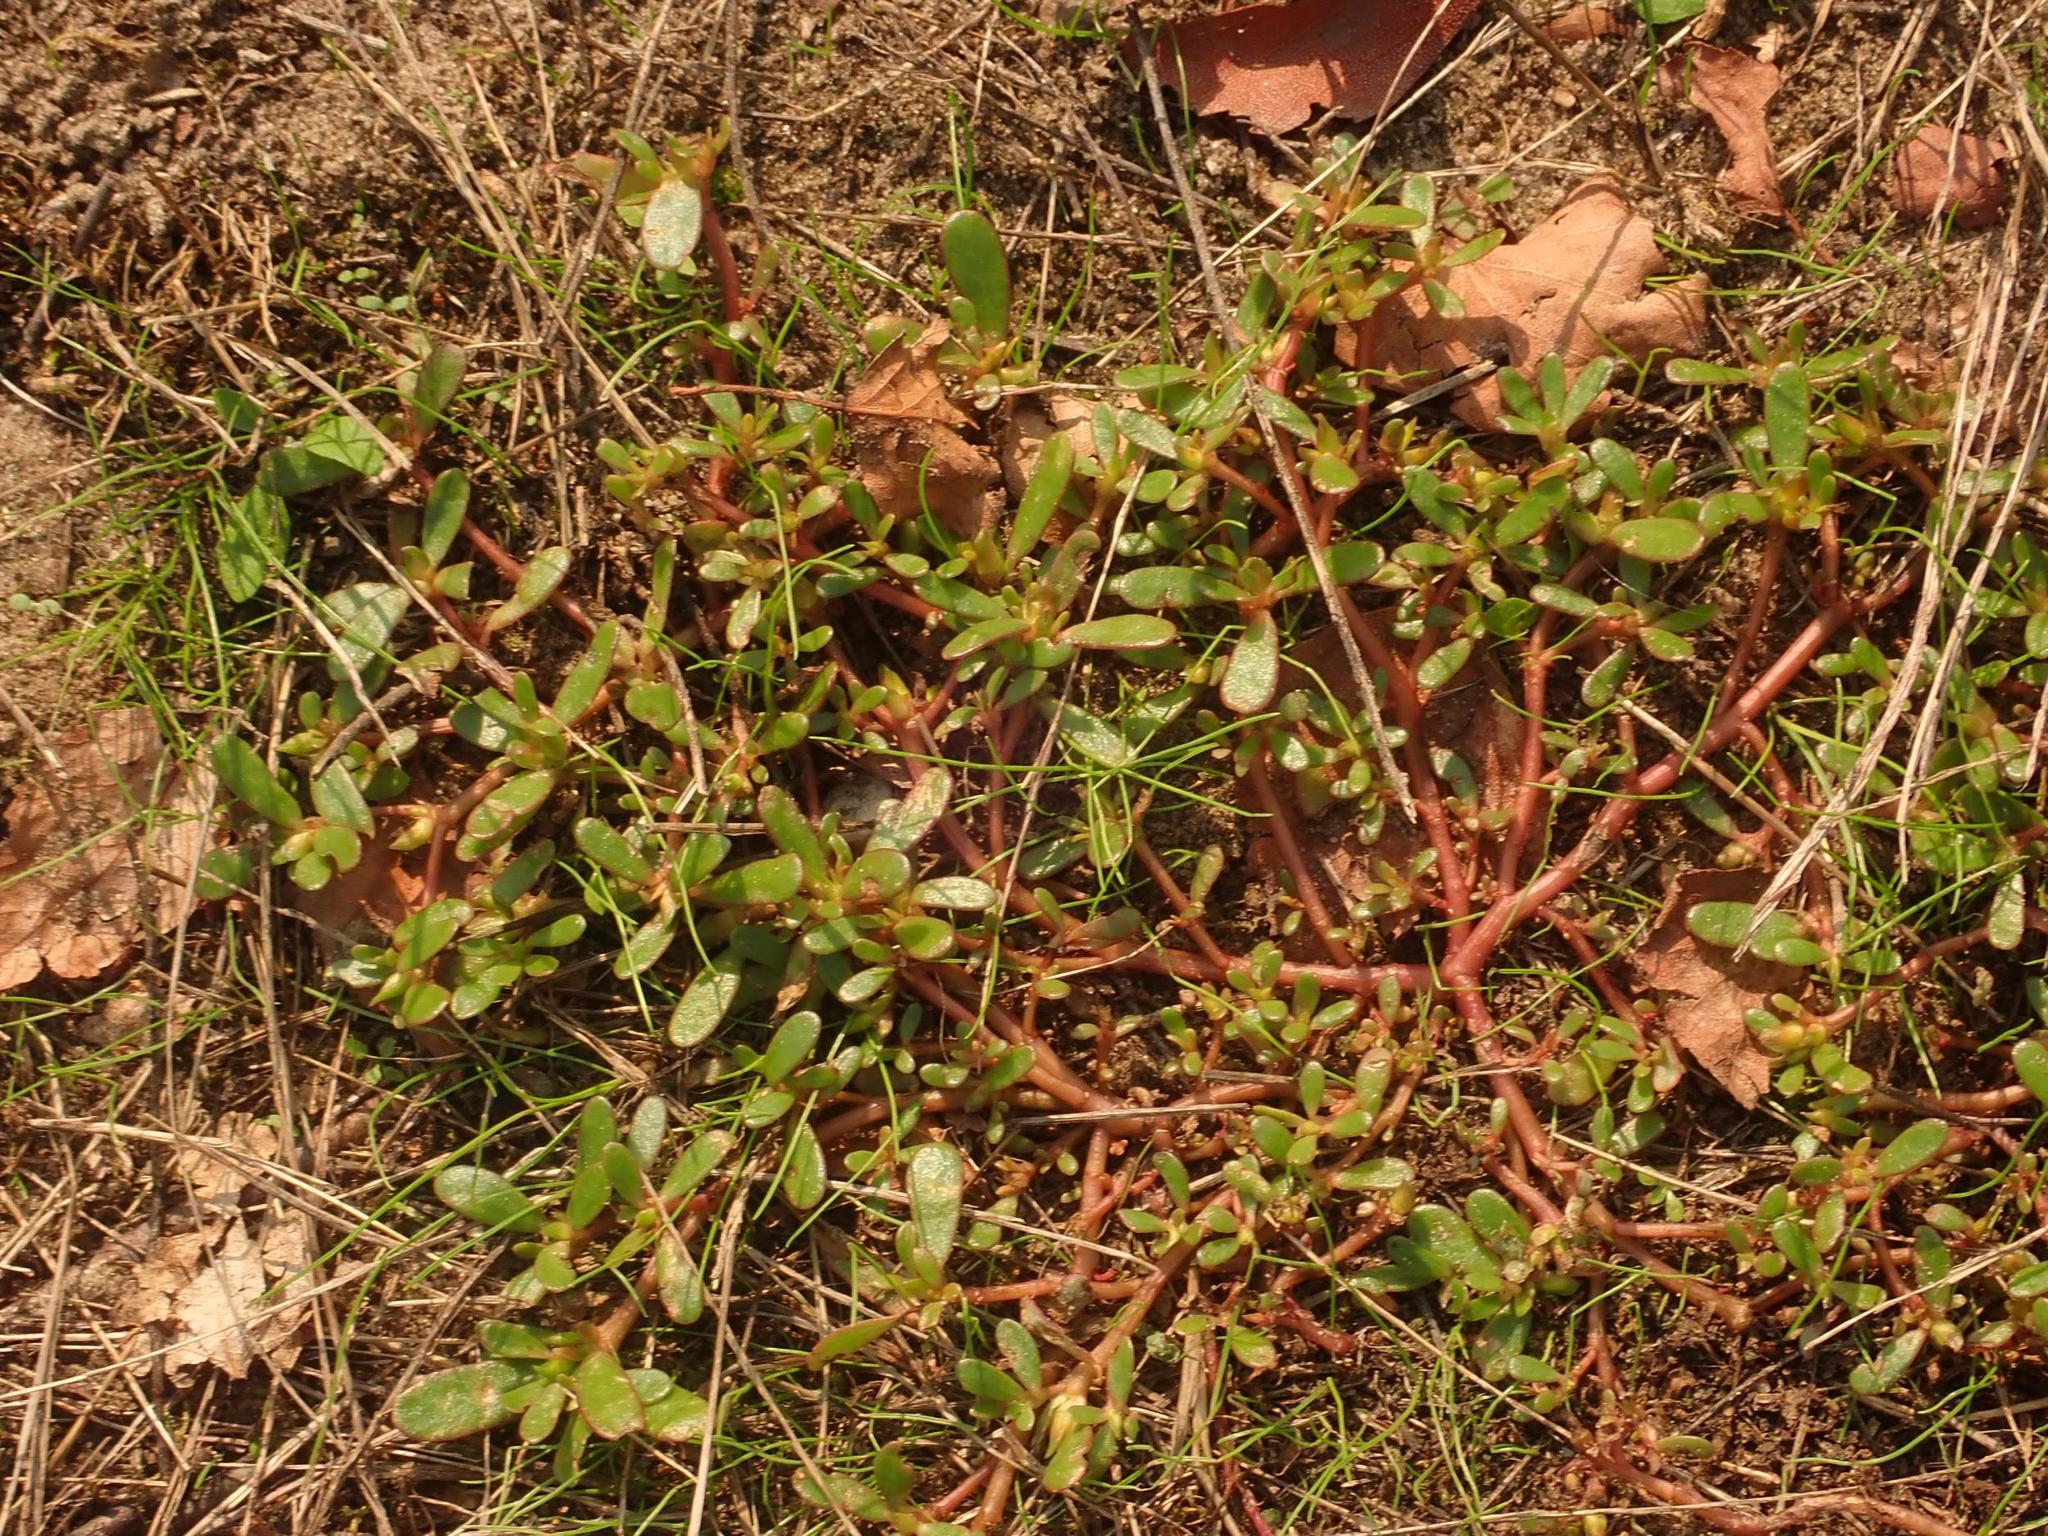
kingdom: Plantae
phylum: Tracheophyta
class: Magnoliopsida
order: Caryophyllales
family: Portulacaceae
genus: Portulaca
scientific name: Portulaca oleracea
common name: Common purslane
